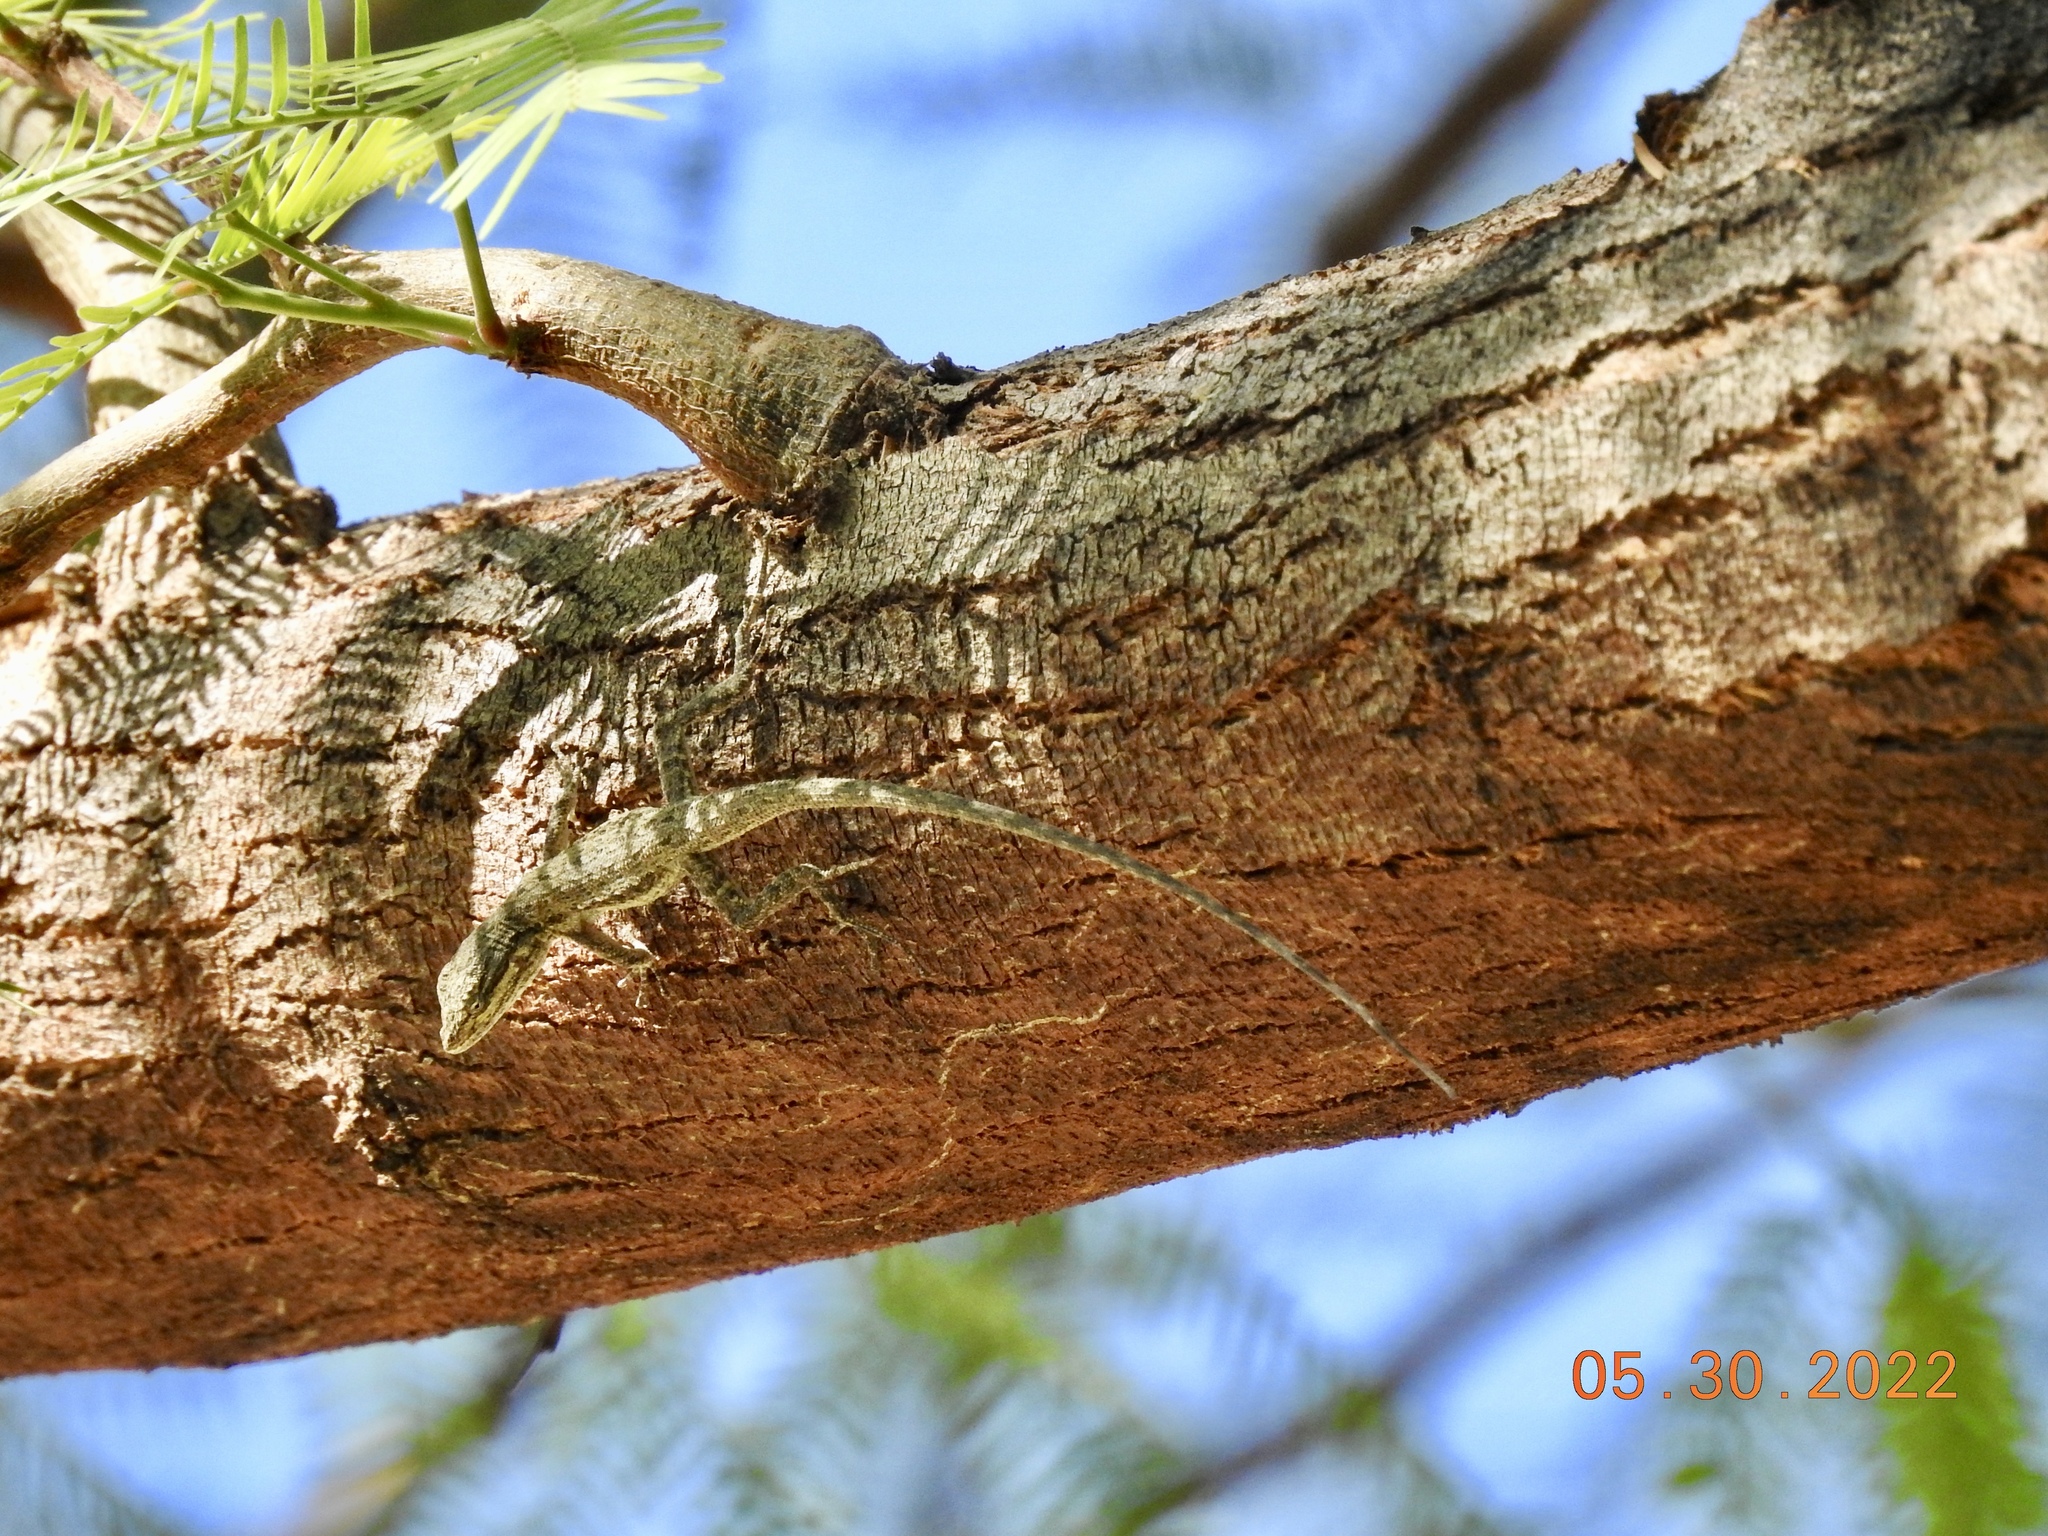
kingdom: Animalia
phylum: Chordata
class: Squamata
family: Phrynosomatidae
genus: Urosaurus
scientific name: Urosaurus graciosus
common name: Long-tailed brush lizard
